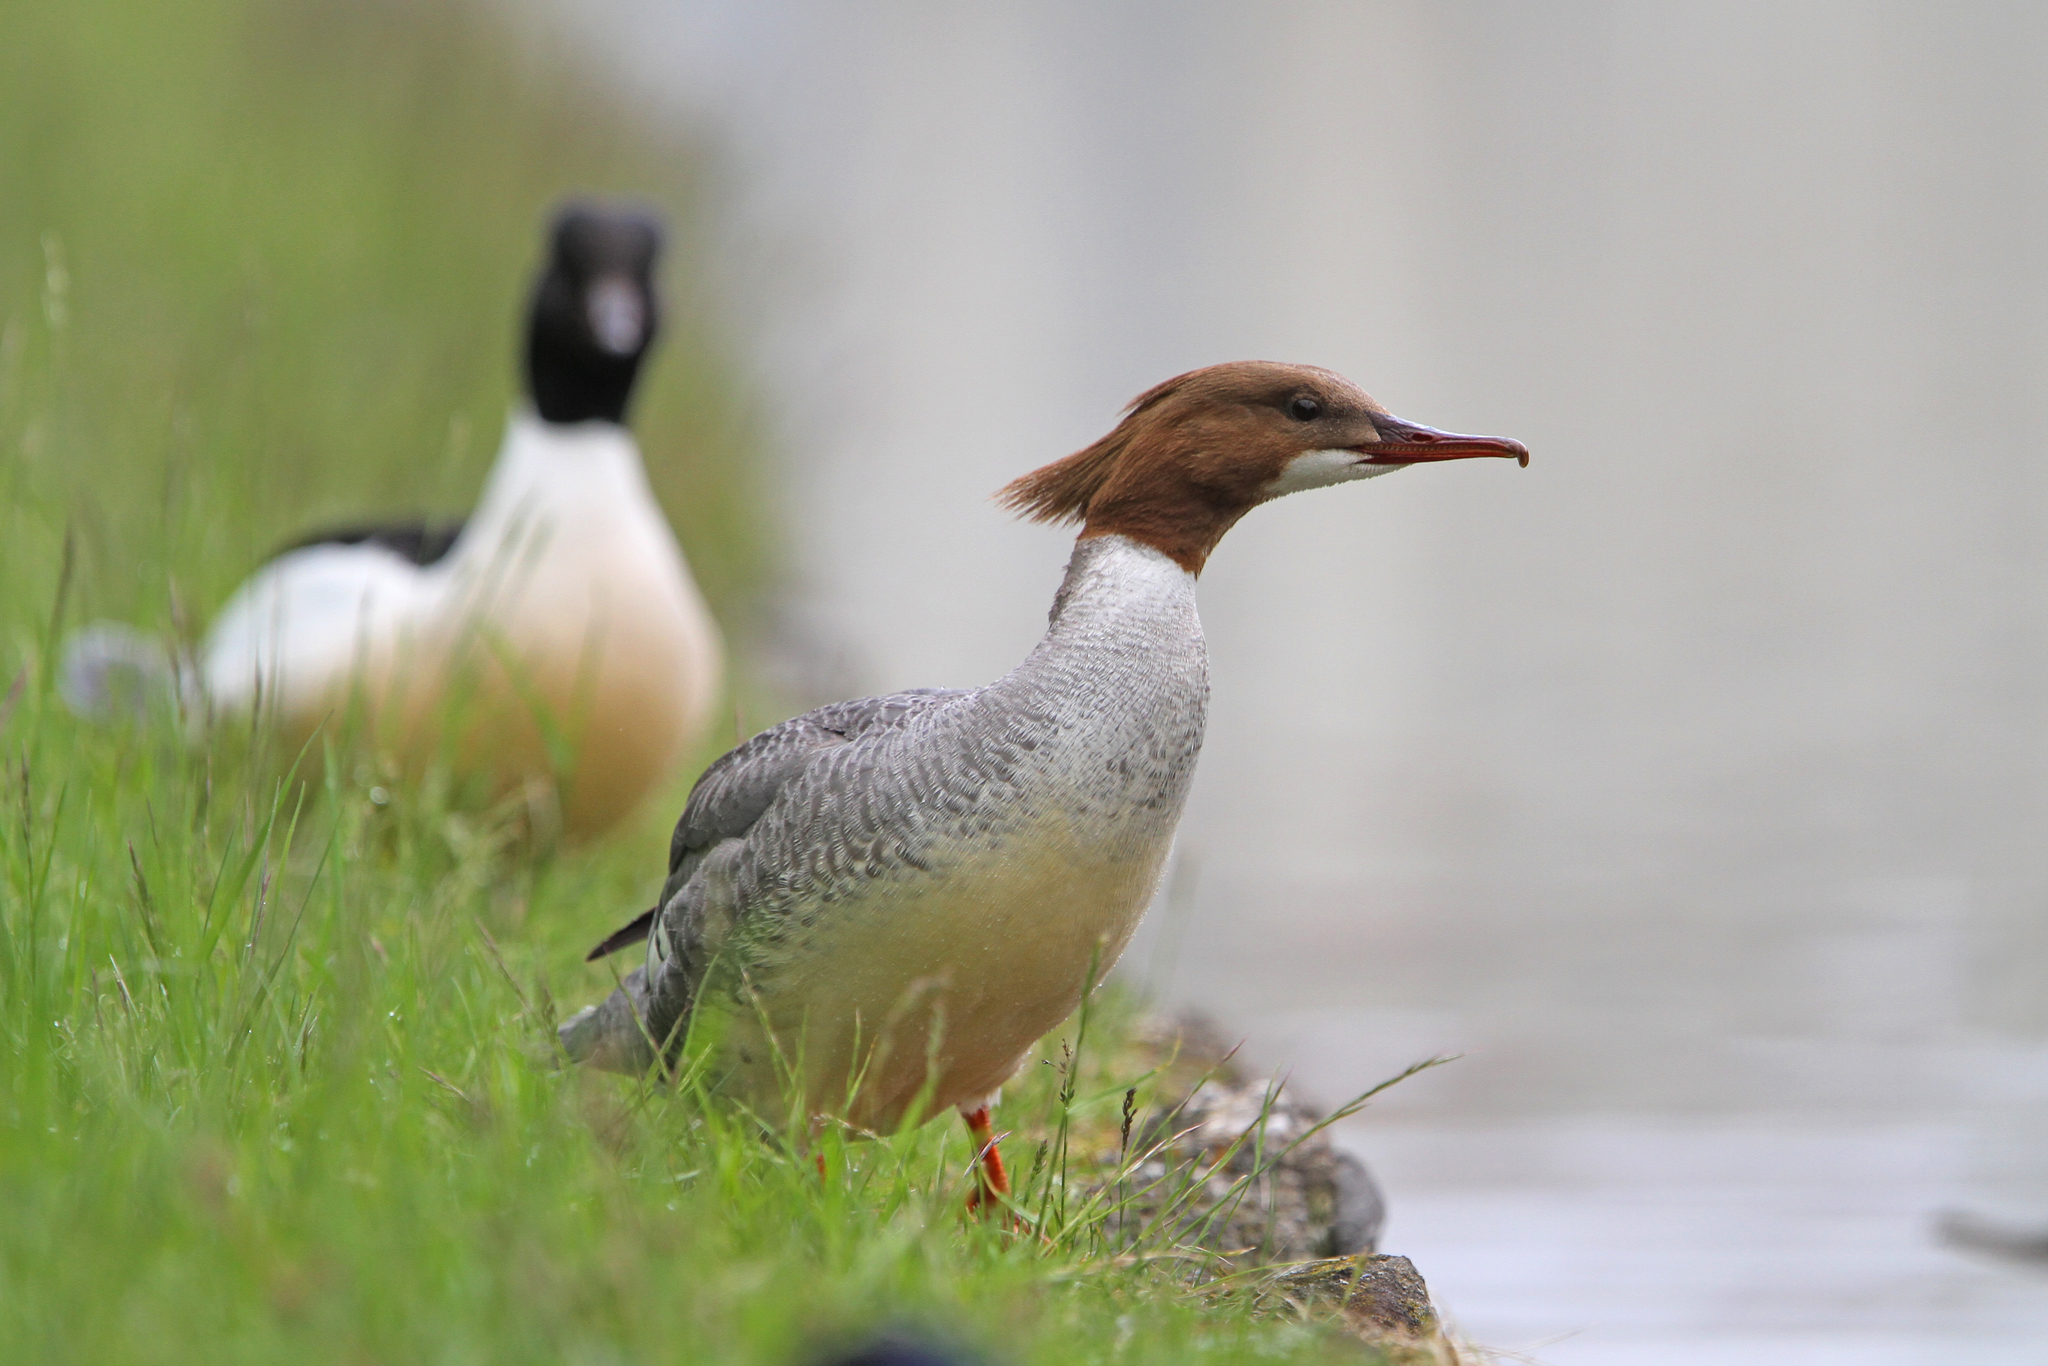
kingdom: Animalia
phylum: Chordata
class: Aves
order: Anseriformes
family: Anatidae
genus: Mergus
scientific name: Mergus merganser
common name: Common merganser
